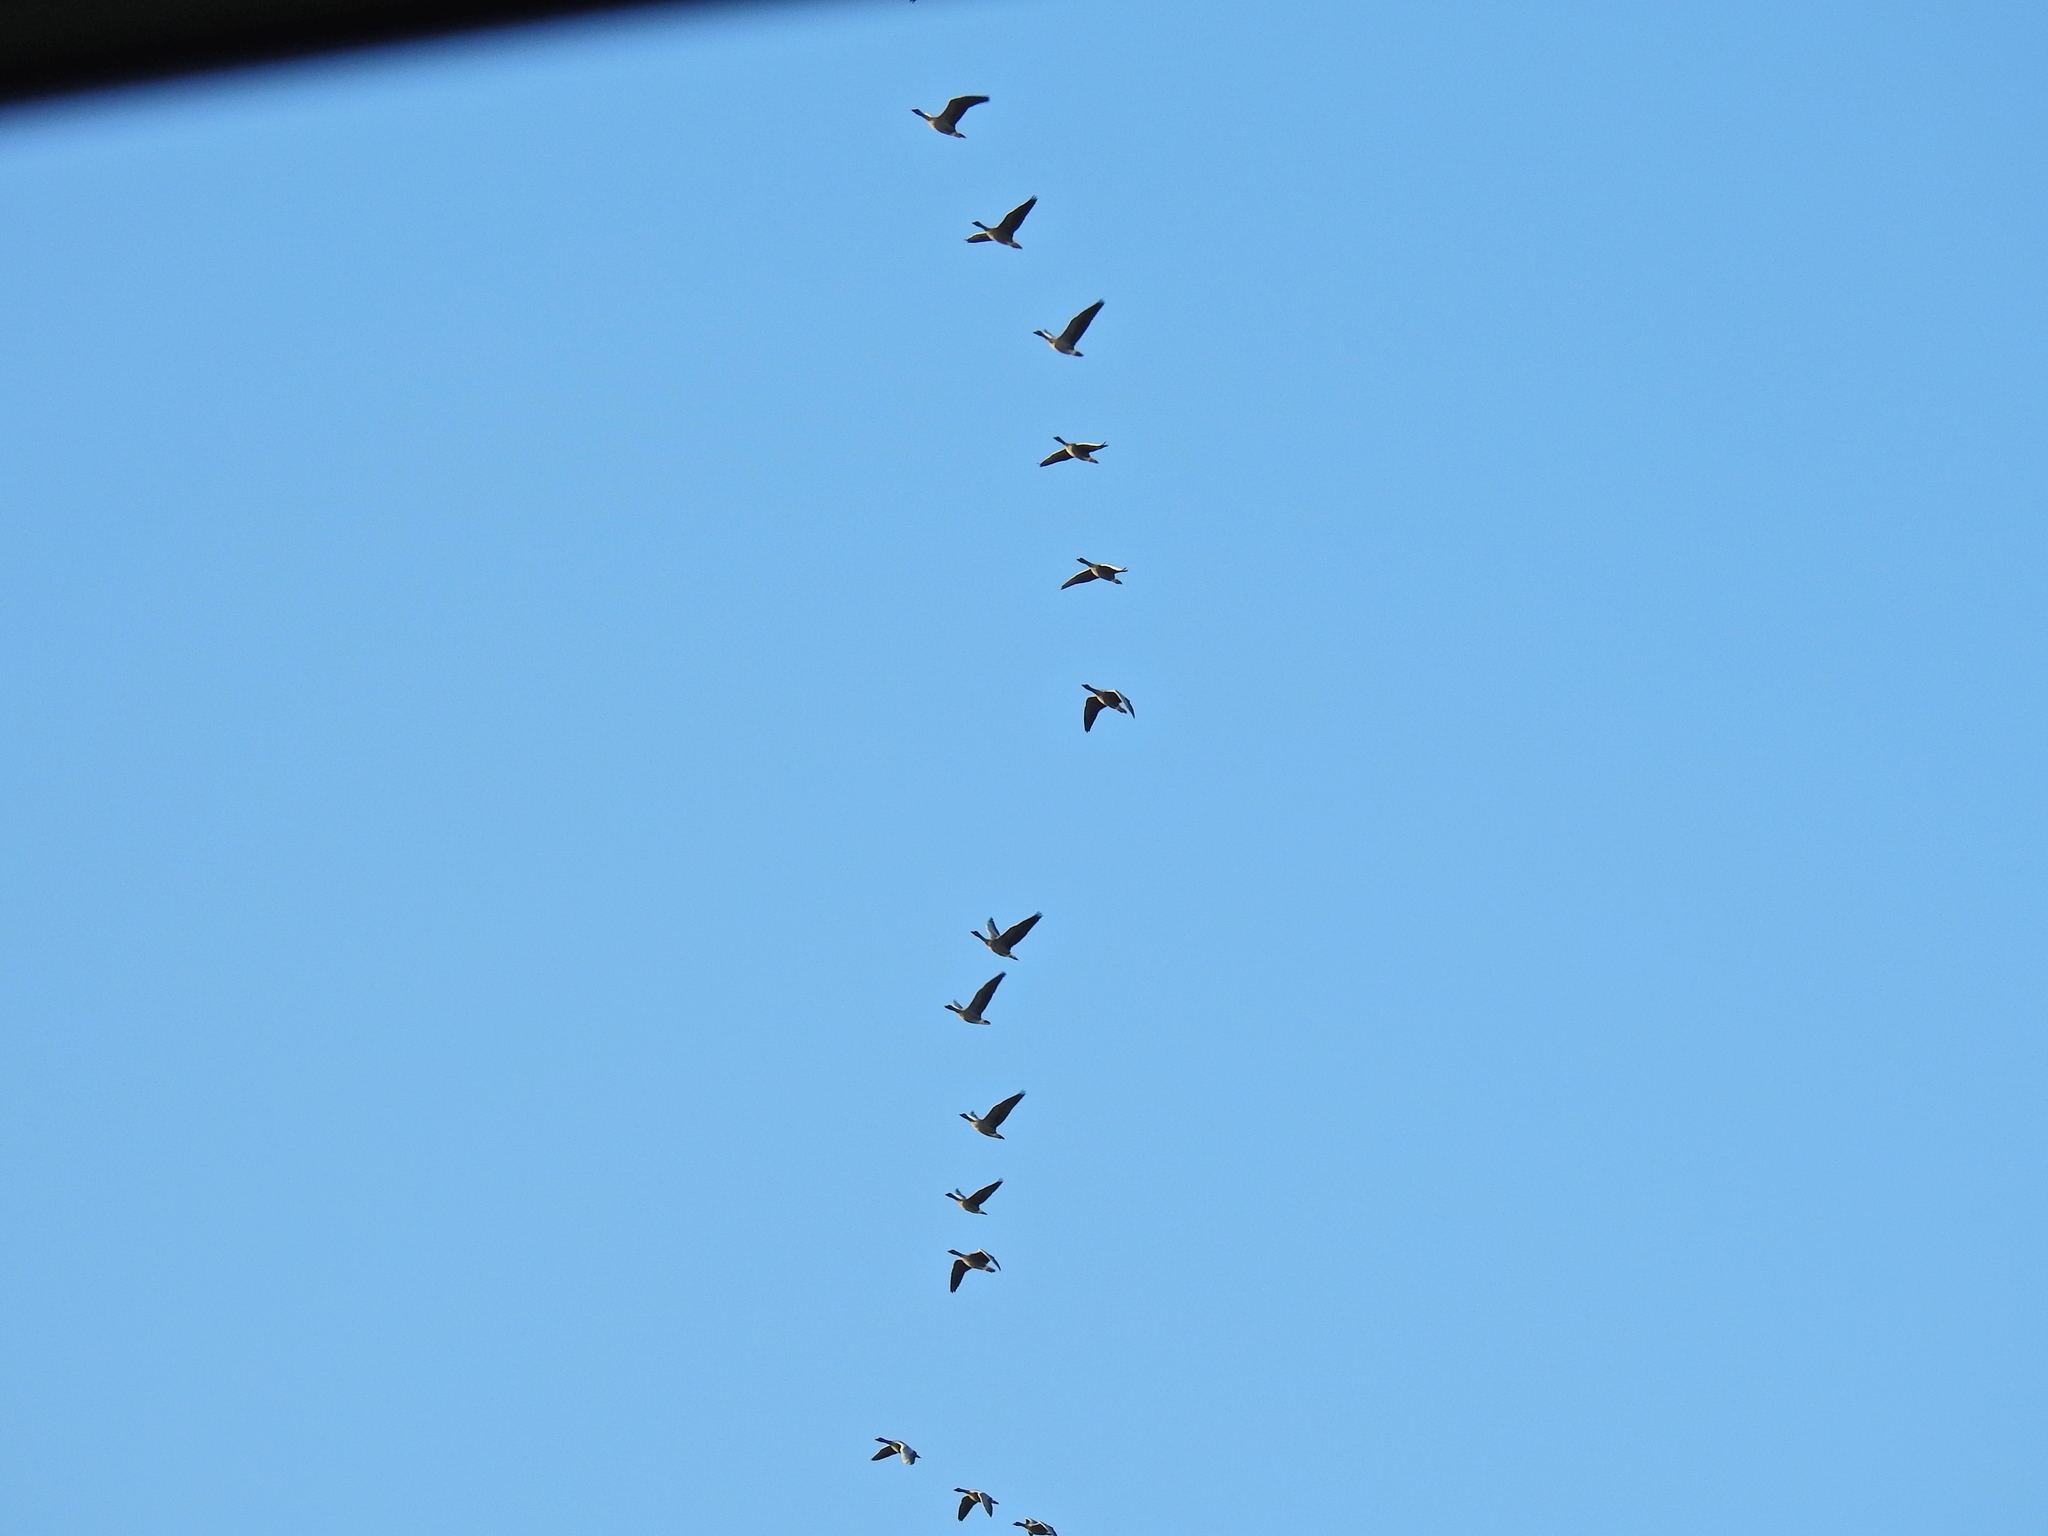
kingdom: Animalia
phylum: Chordata
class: Aves
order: Anseriformes
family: Anatidae
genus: Anser
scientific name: Anser brachyrhynchus
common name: Pink-footed goose
